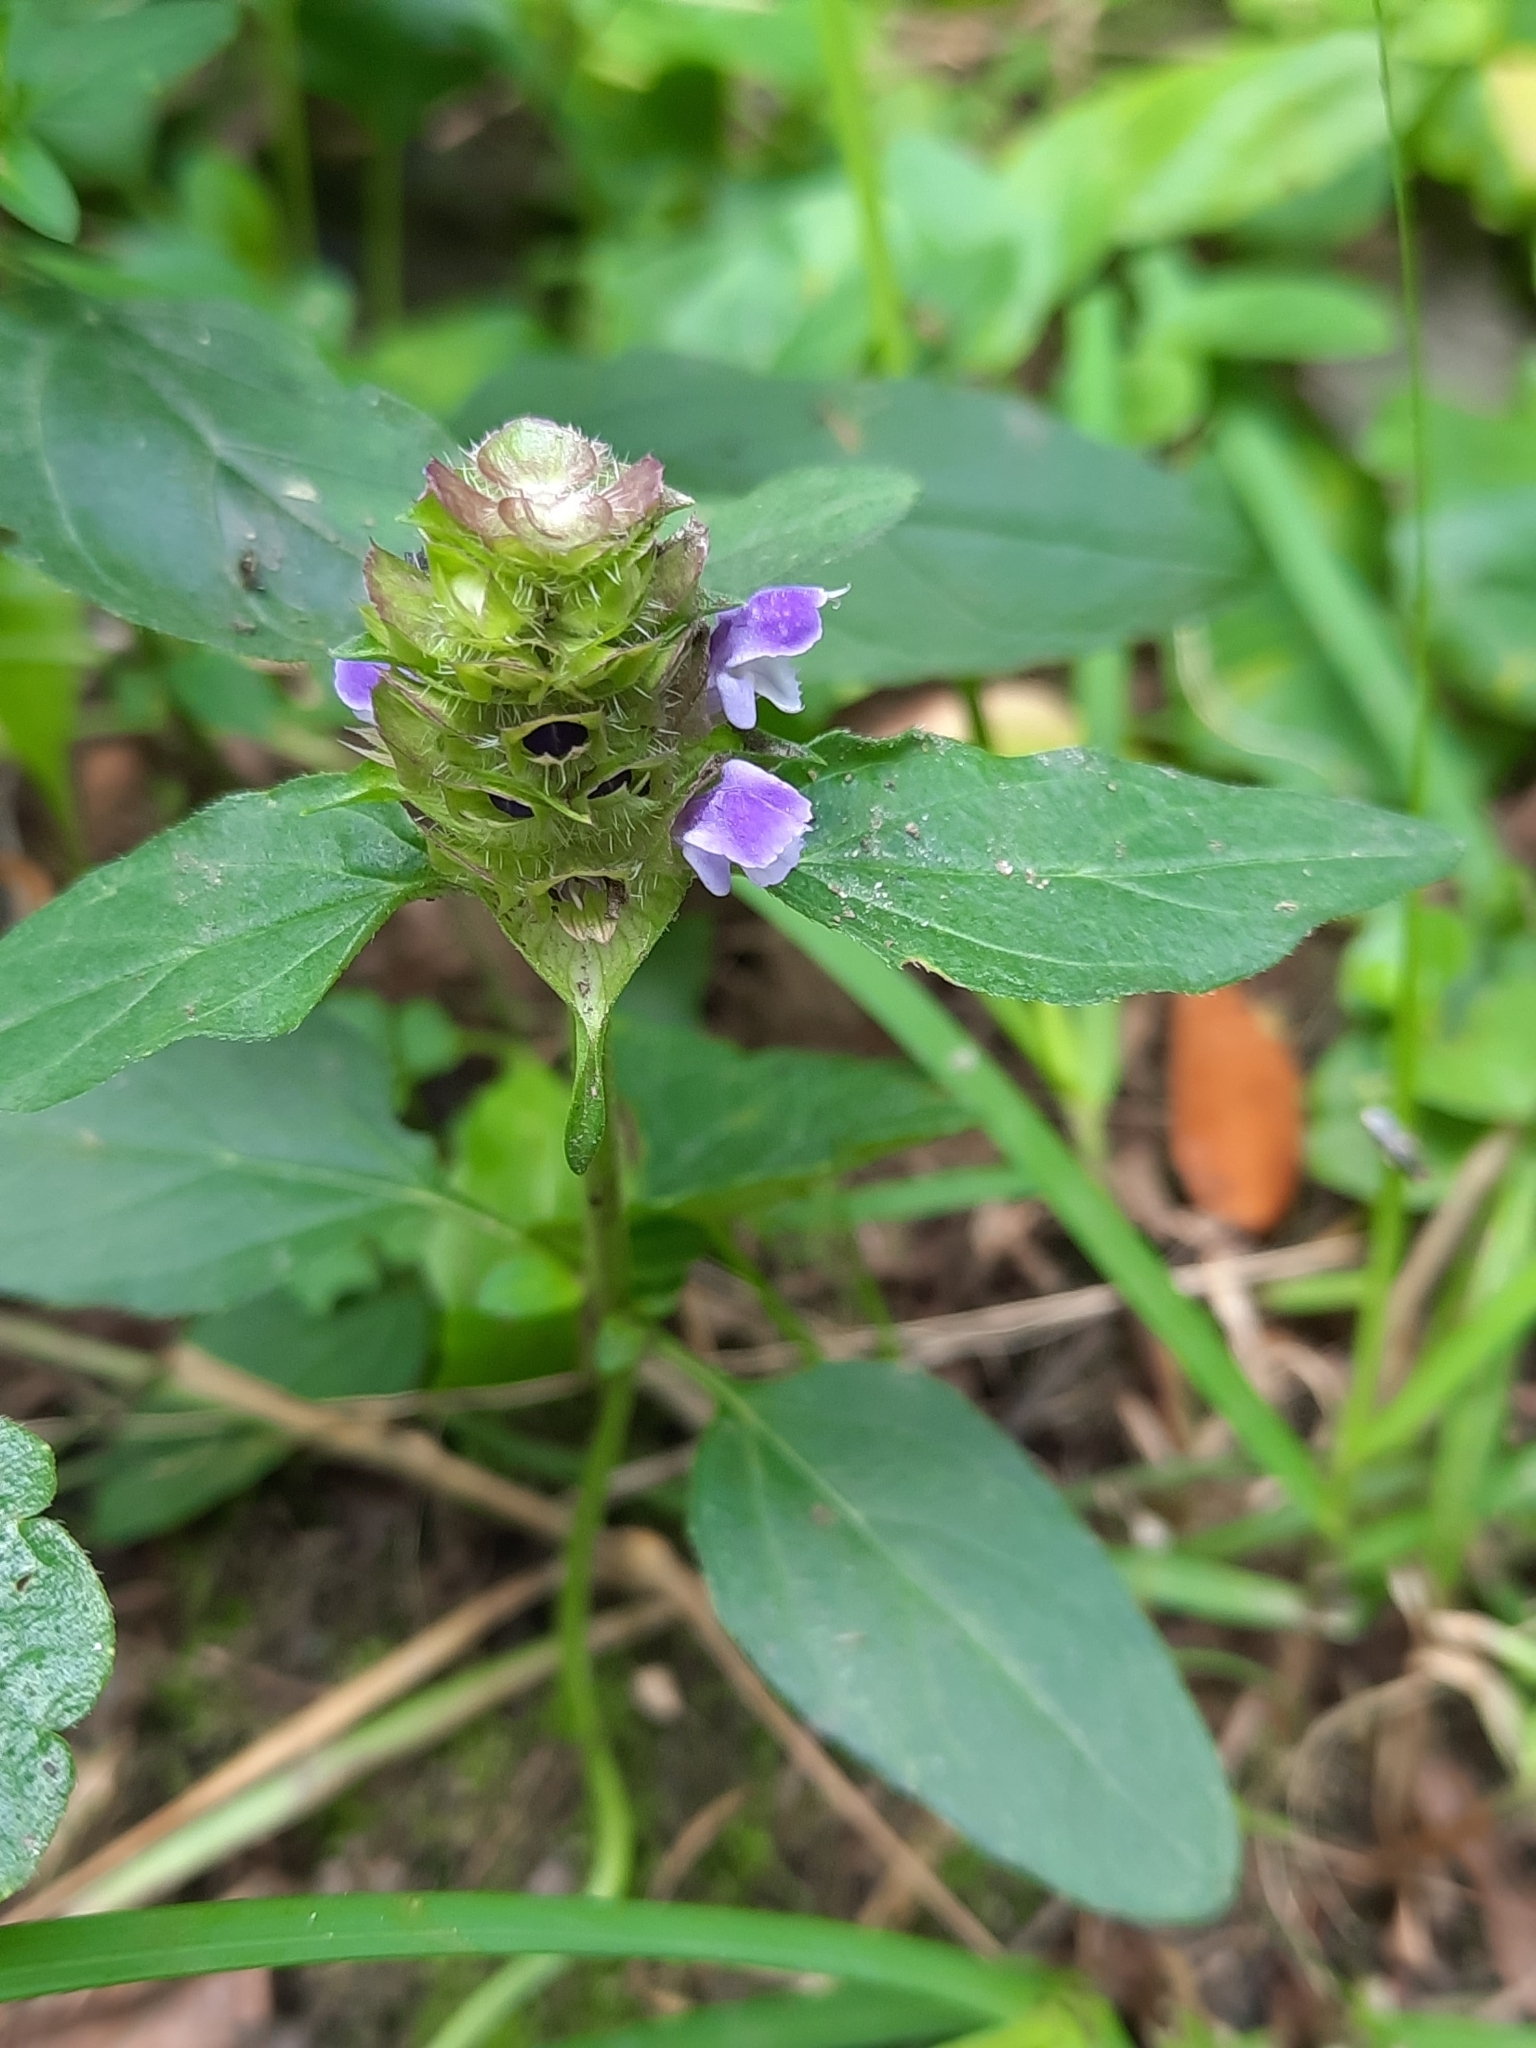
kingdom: Plantae
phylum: Tracheophyta
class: Magnoliopsida
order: Lamiales
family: Lamiaceae
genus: Prunella
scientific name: Prunella vulgaris
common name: Heal-all
